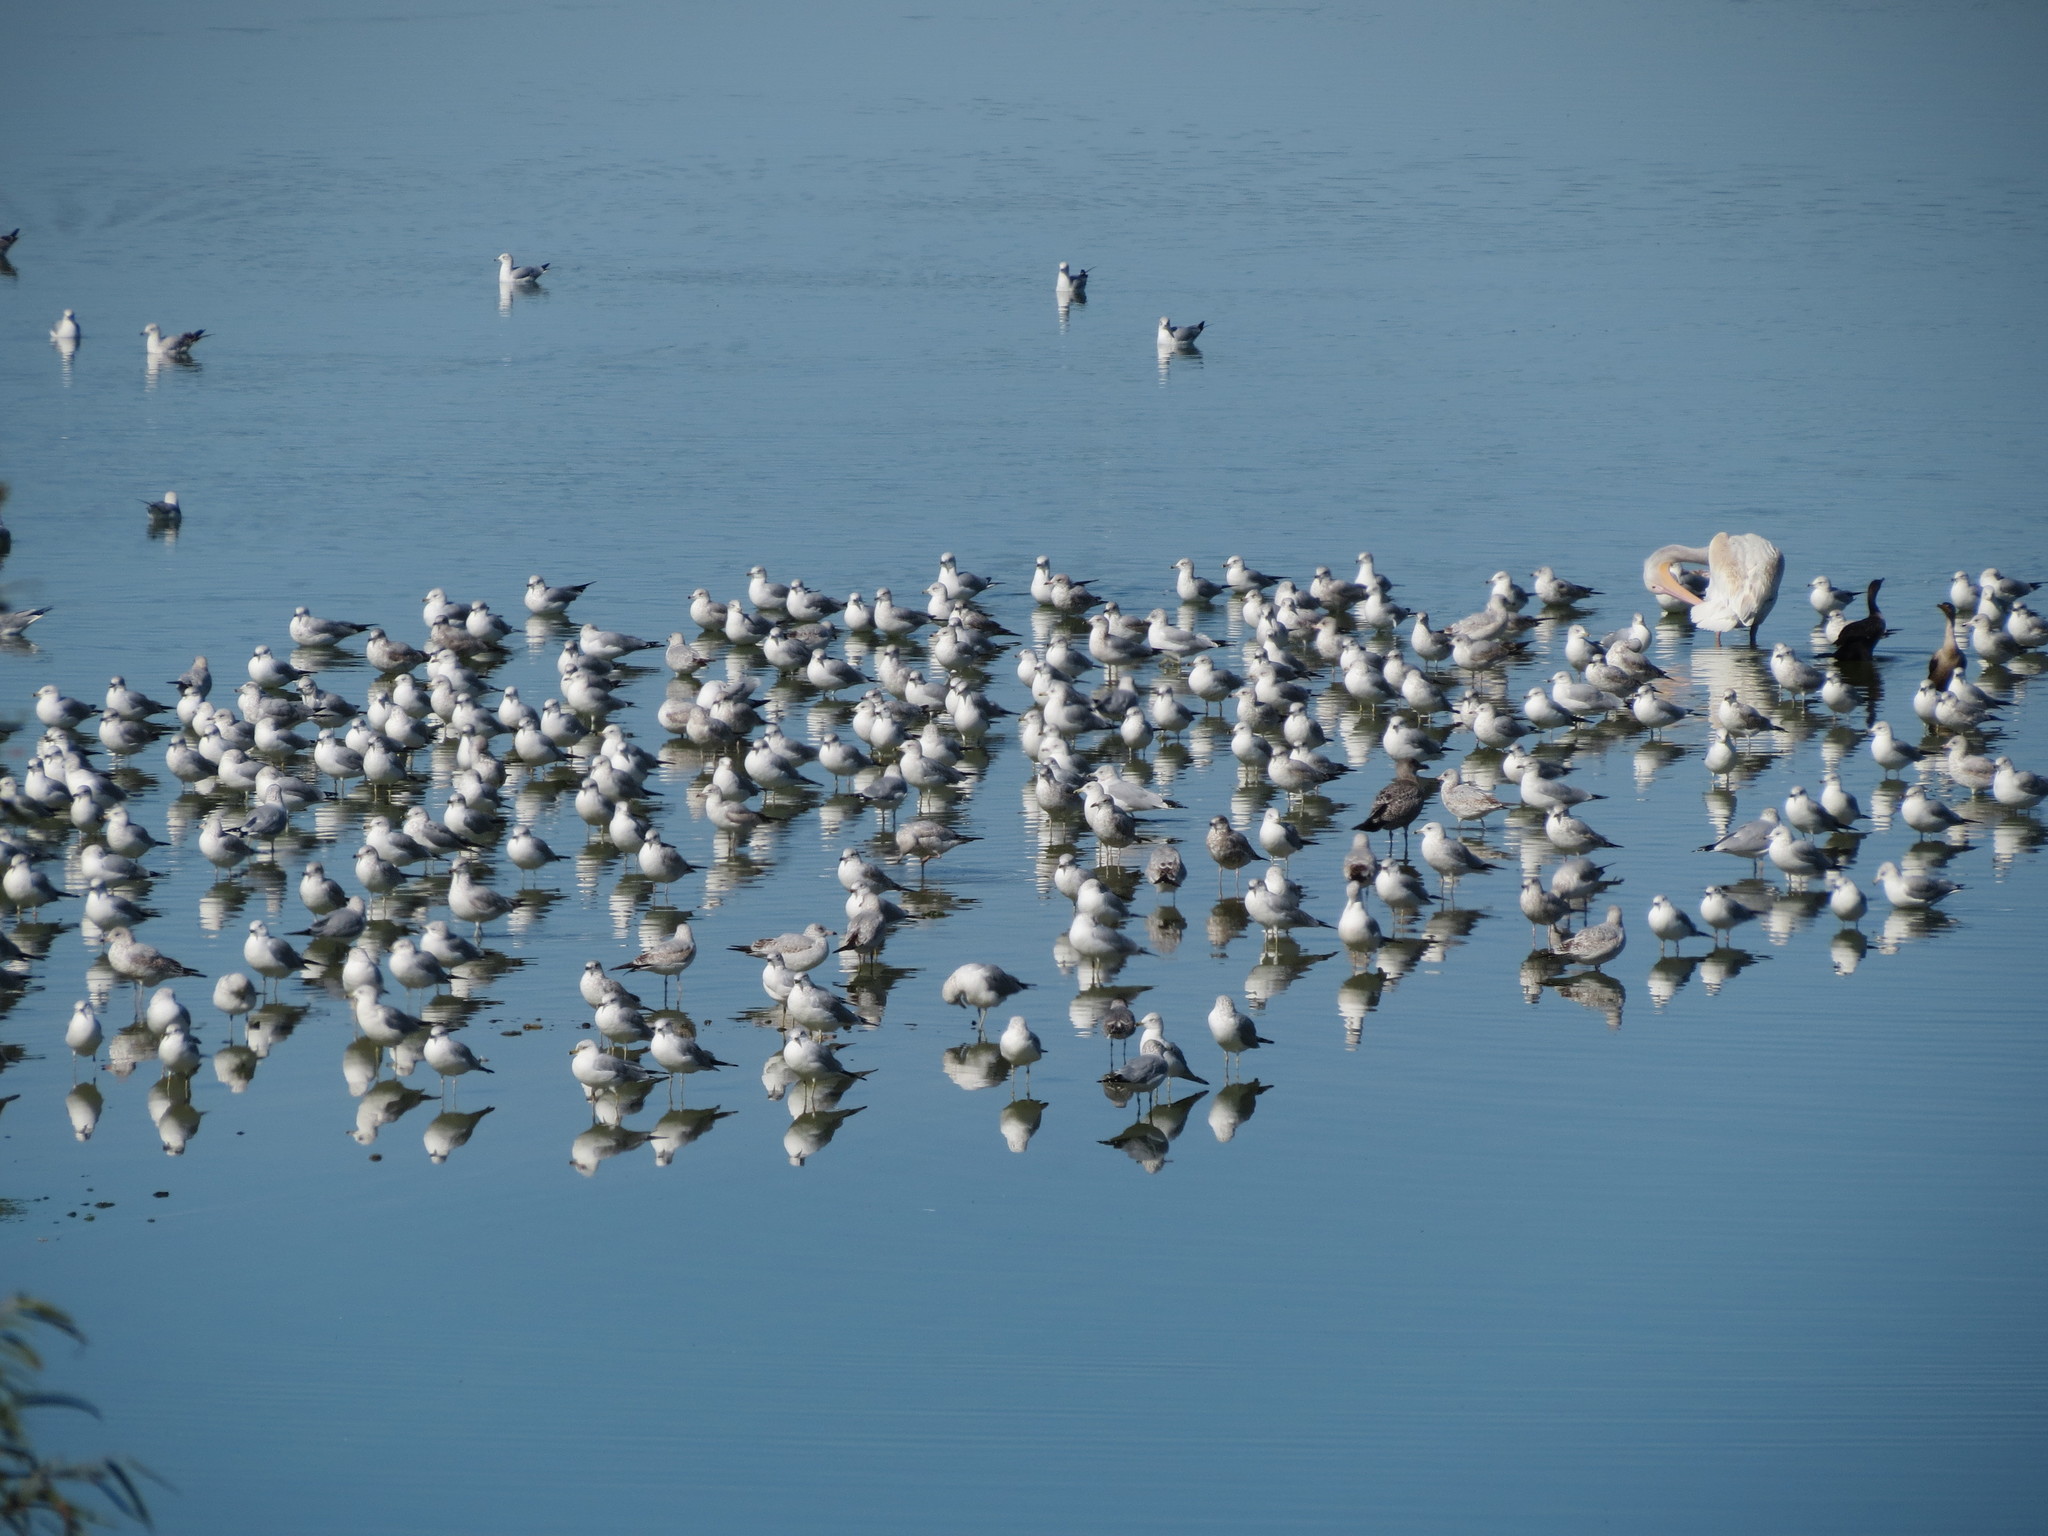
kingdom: Animalia
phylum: Chordata
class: Aves
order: Charadriiformes
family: Laridae
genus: Larus
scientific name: Larus delawarensis
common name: Ring-billed gull
